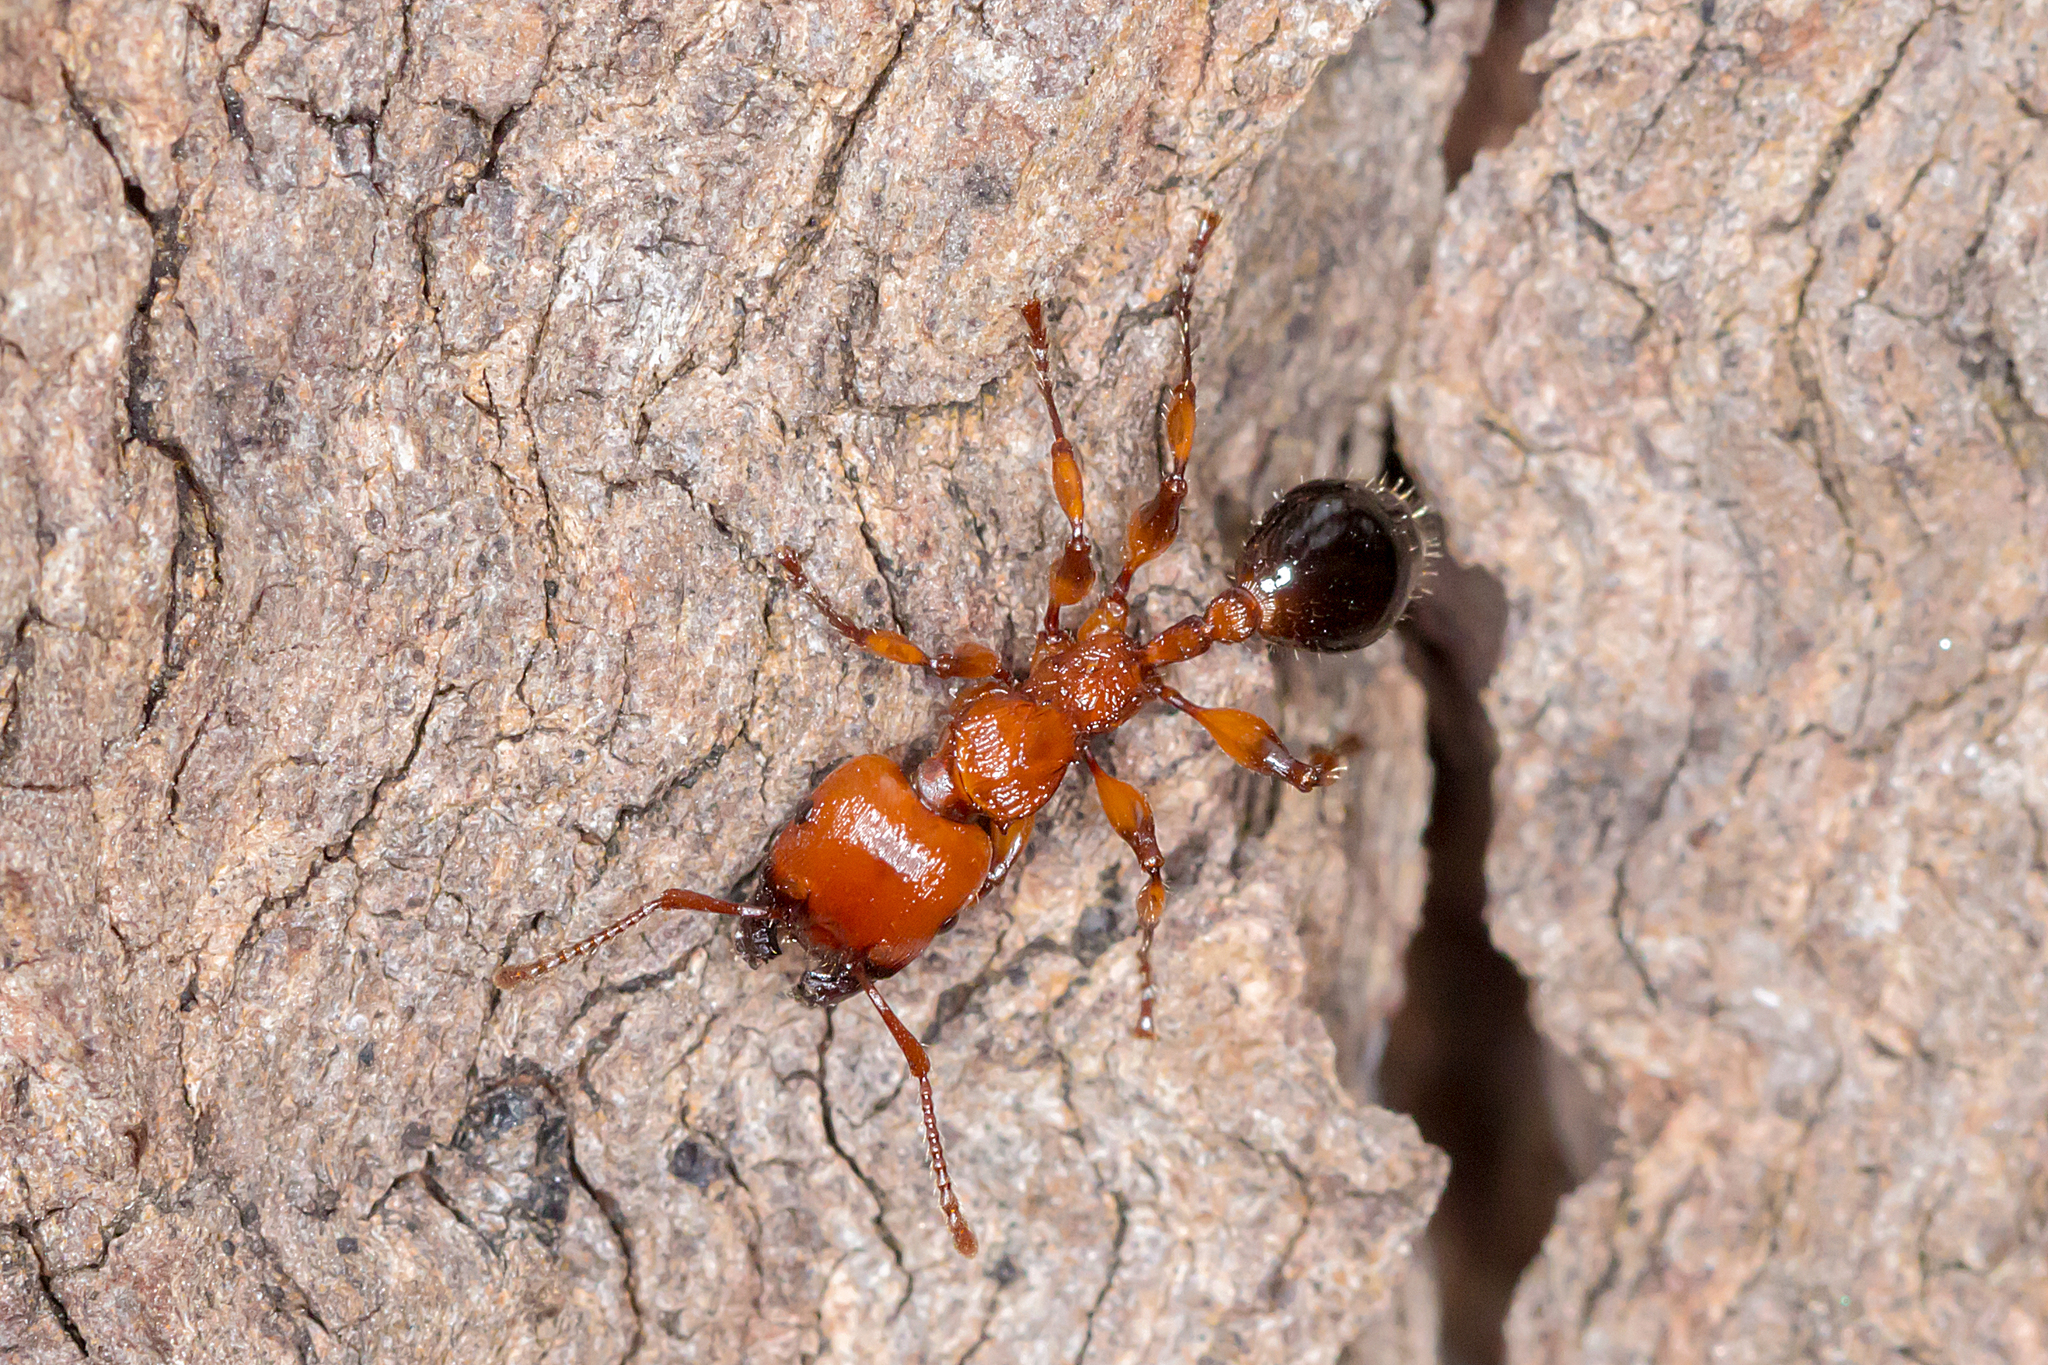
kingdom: Animalia
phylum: Arthropoda
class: Insecta
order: Hymenoptera
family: Formicidae
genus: Podomyrma
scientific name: Podomyrma gratiosa
